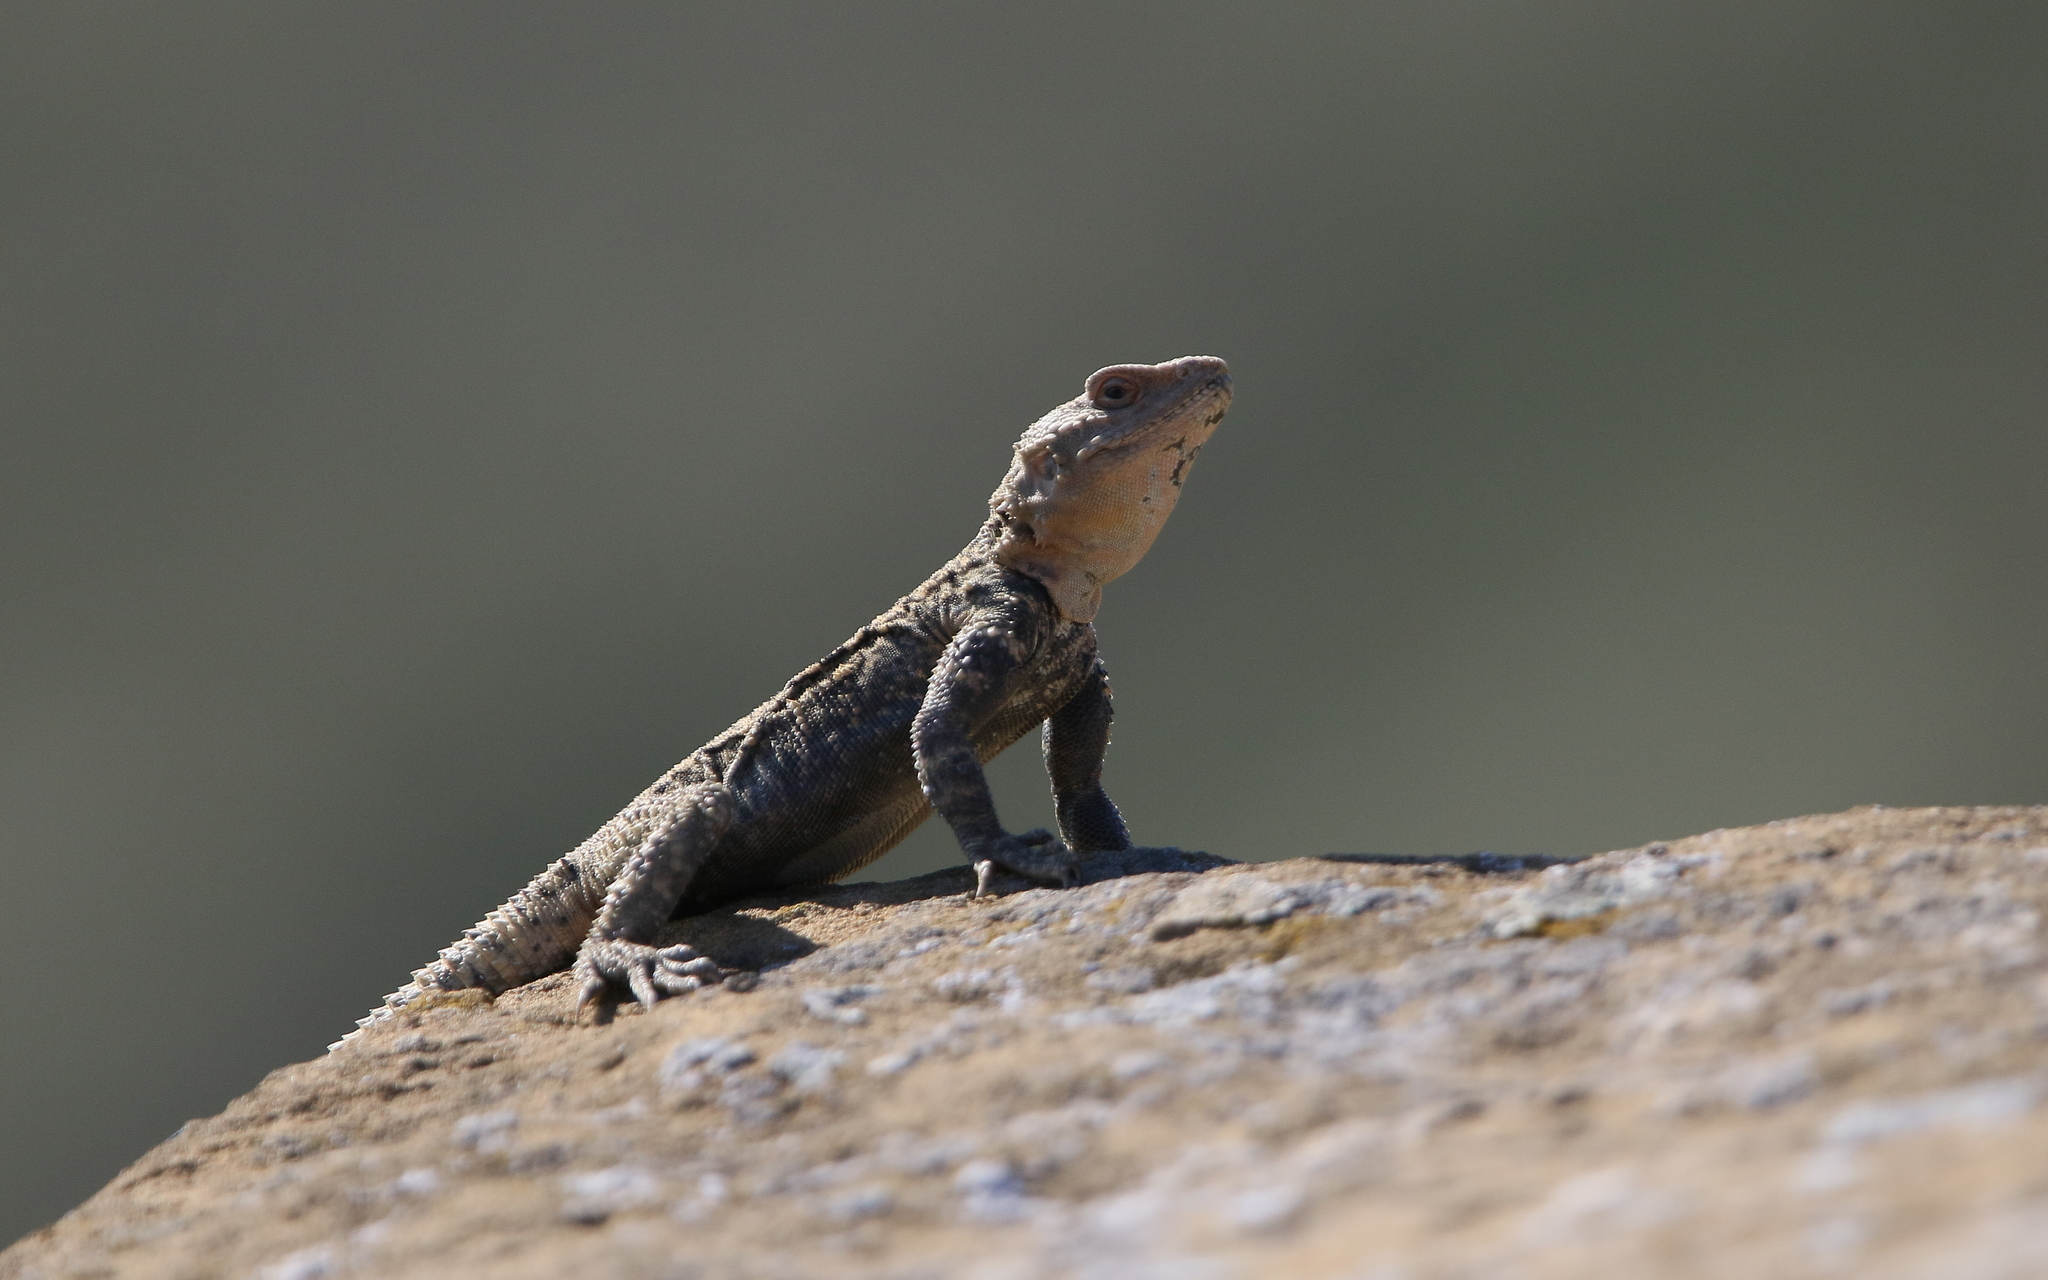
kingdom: Animalia
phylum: Chordata
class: Squamata
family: Agamidae
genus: Paralaudakia
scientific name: Paralaudakia caucasia
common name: Caucasian agama
